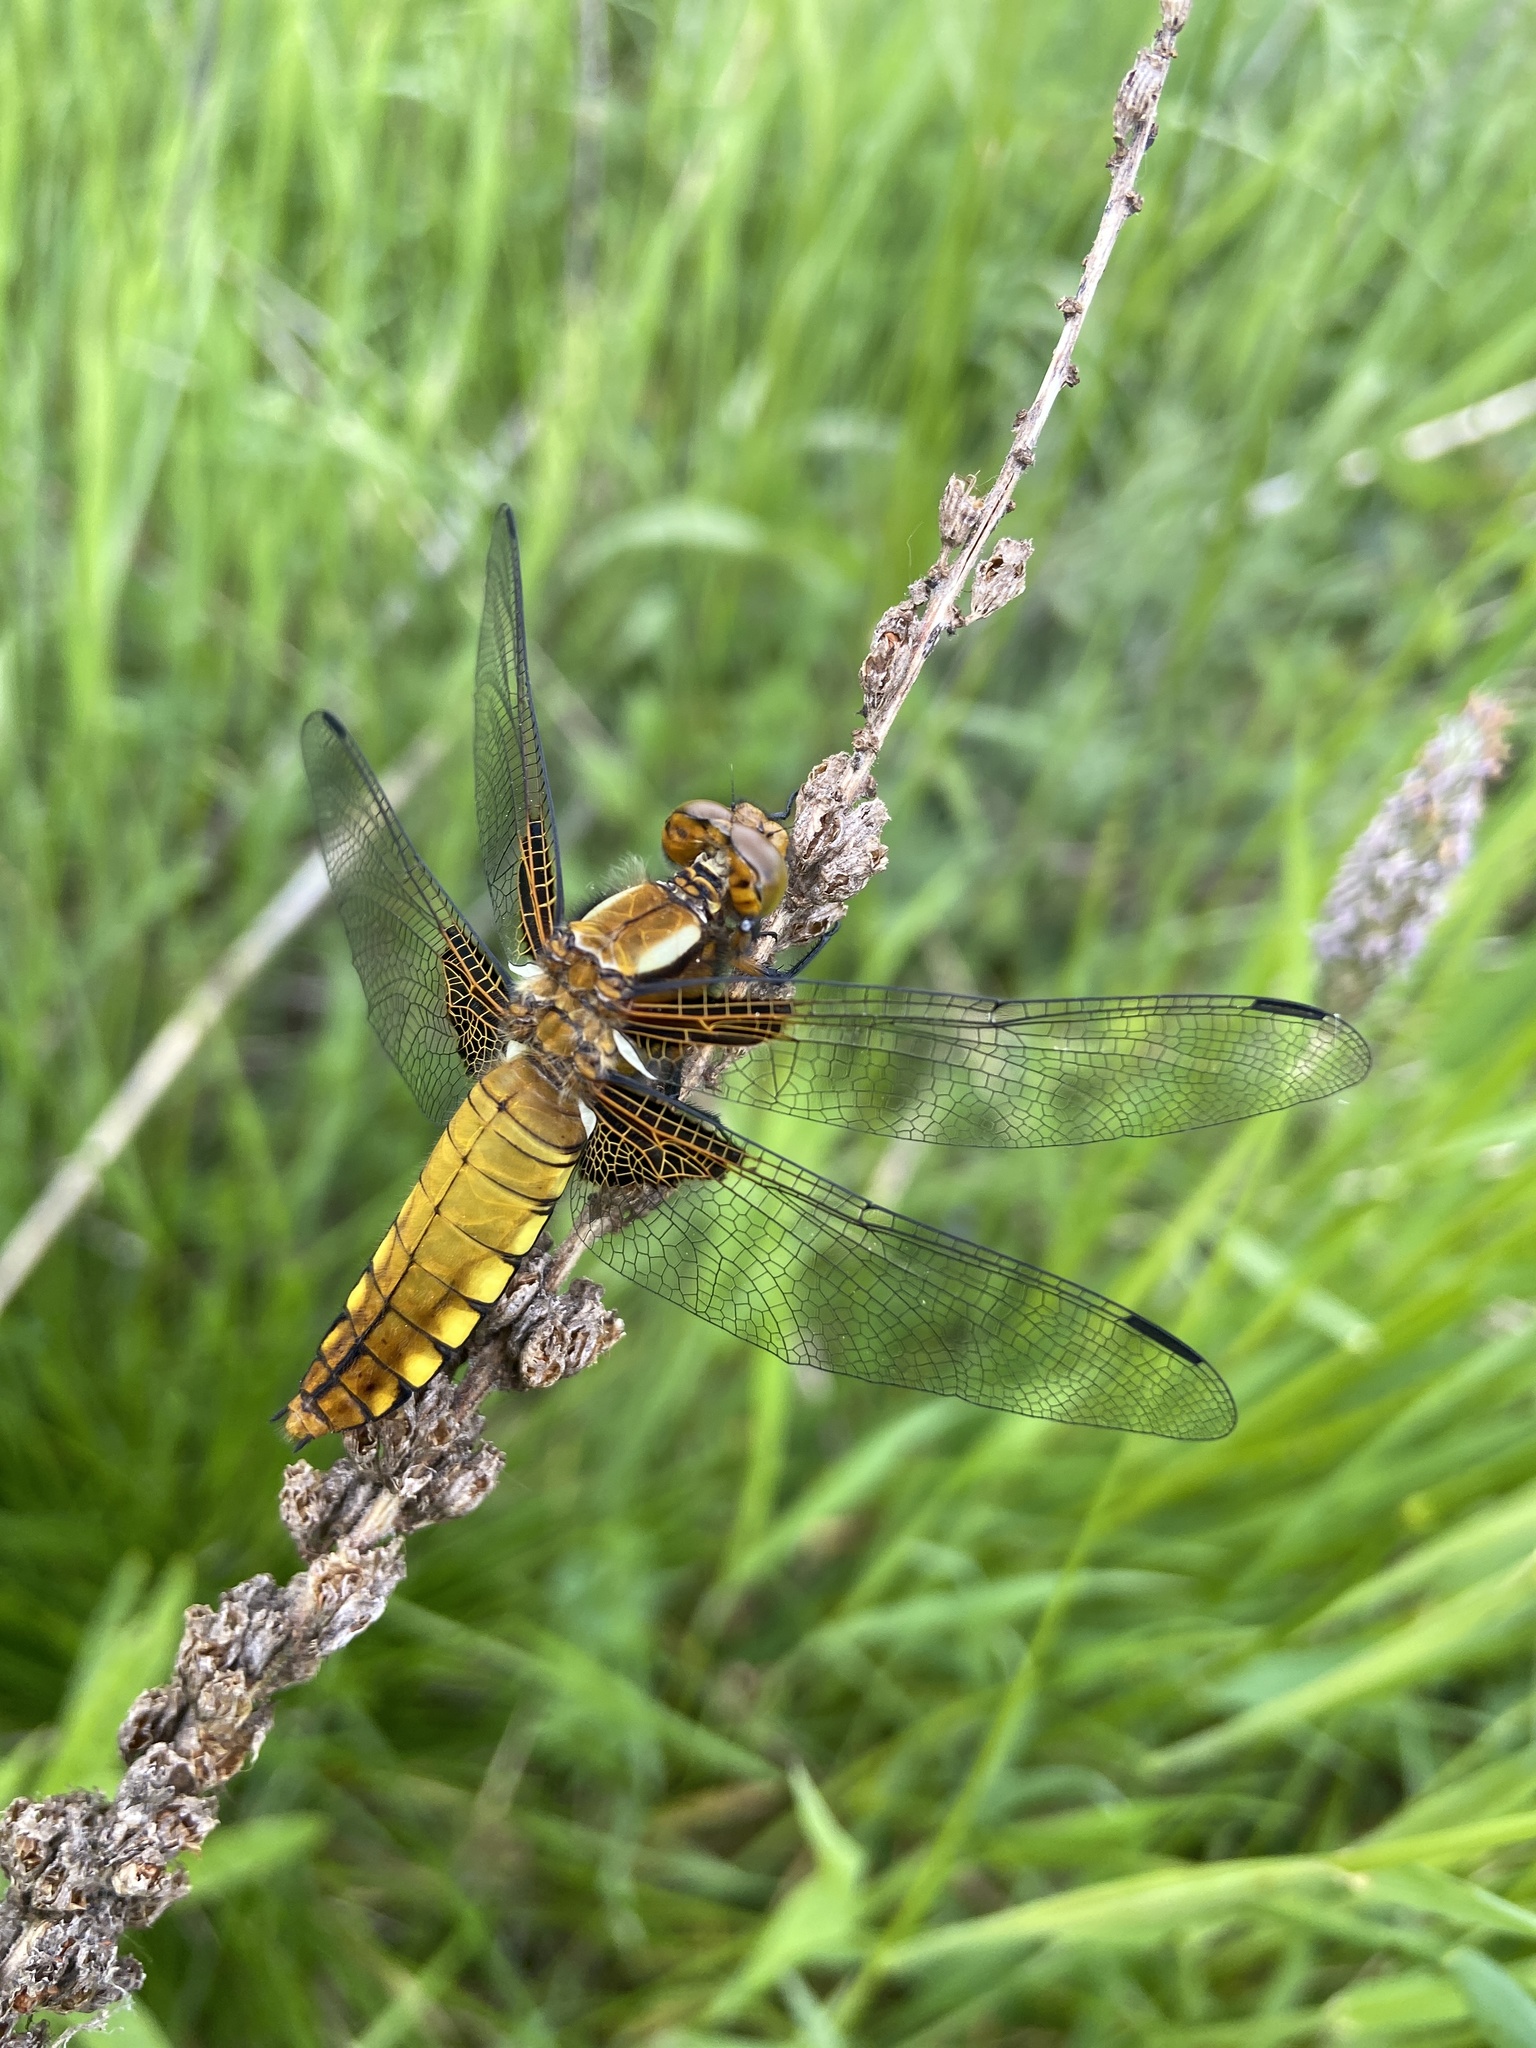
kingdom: Animalia
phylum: Arthropoda
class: Insecta
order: Odonata
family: Libellulidae
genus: Libellula
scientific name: Libellula depressa
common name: Broad-bodied chaser
